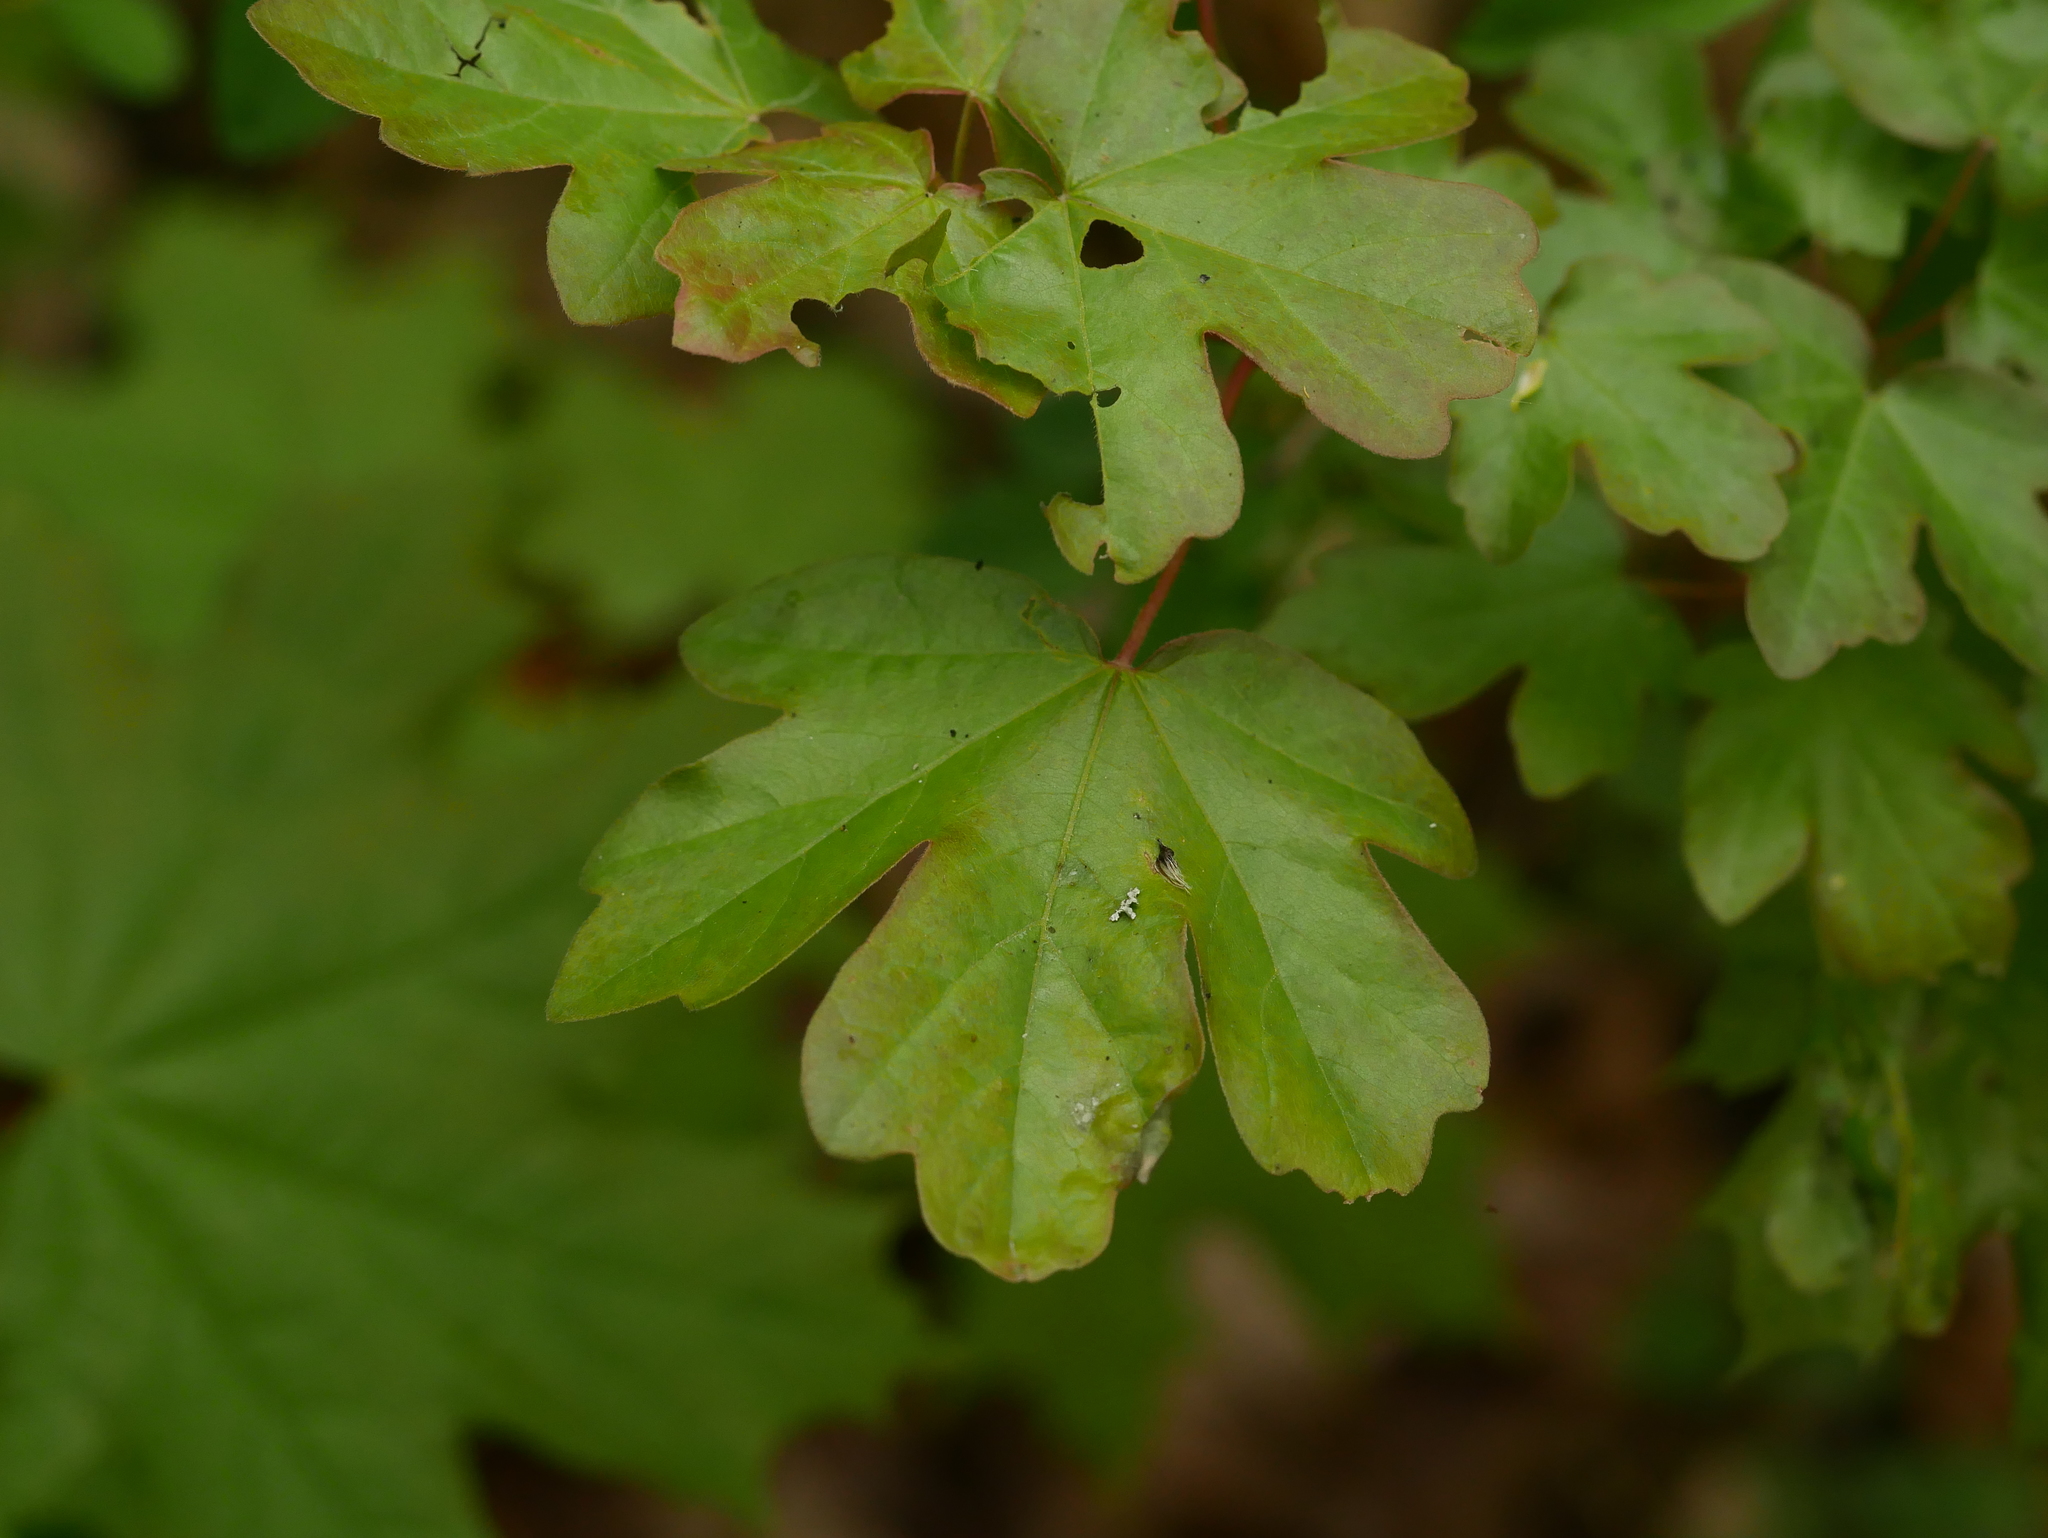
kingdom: Plantae
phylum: Tracheophyta
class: Magnoliopsida
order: Sapindales
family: Sapindaceae
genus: Acer
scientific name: Acer campestre
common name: Field maple
